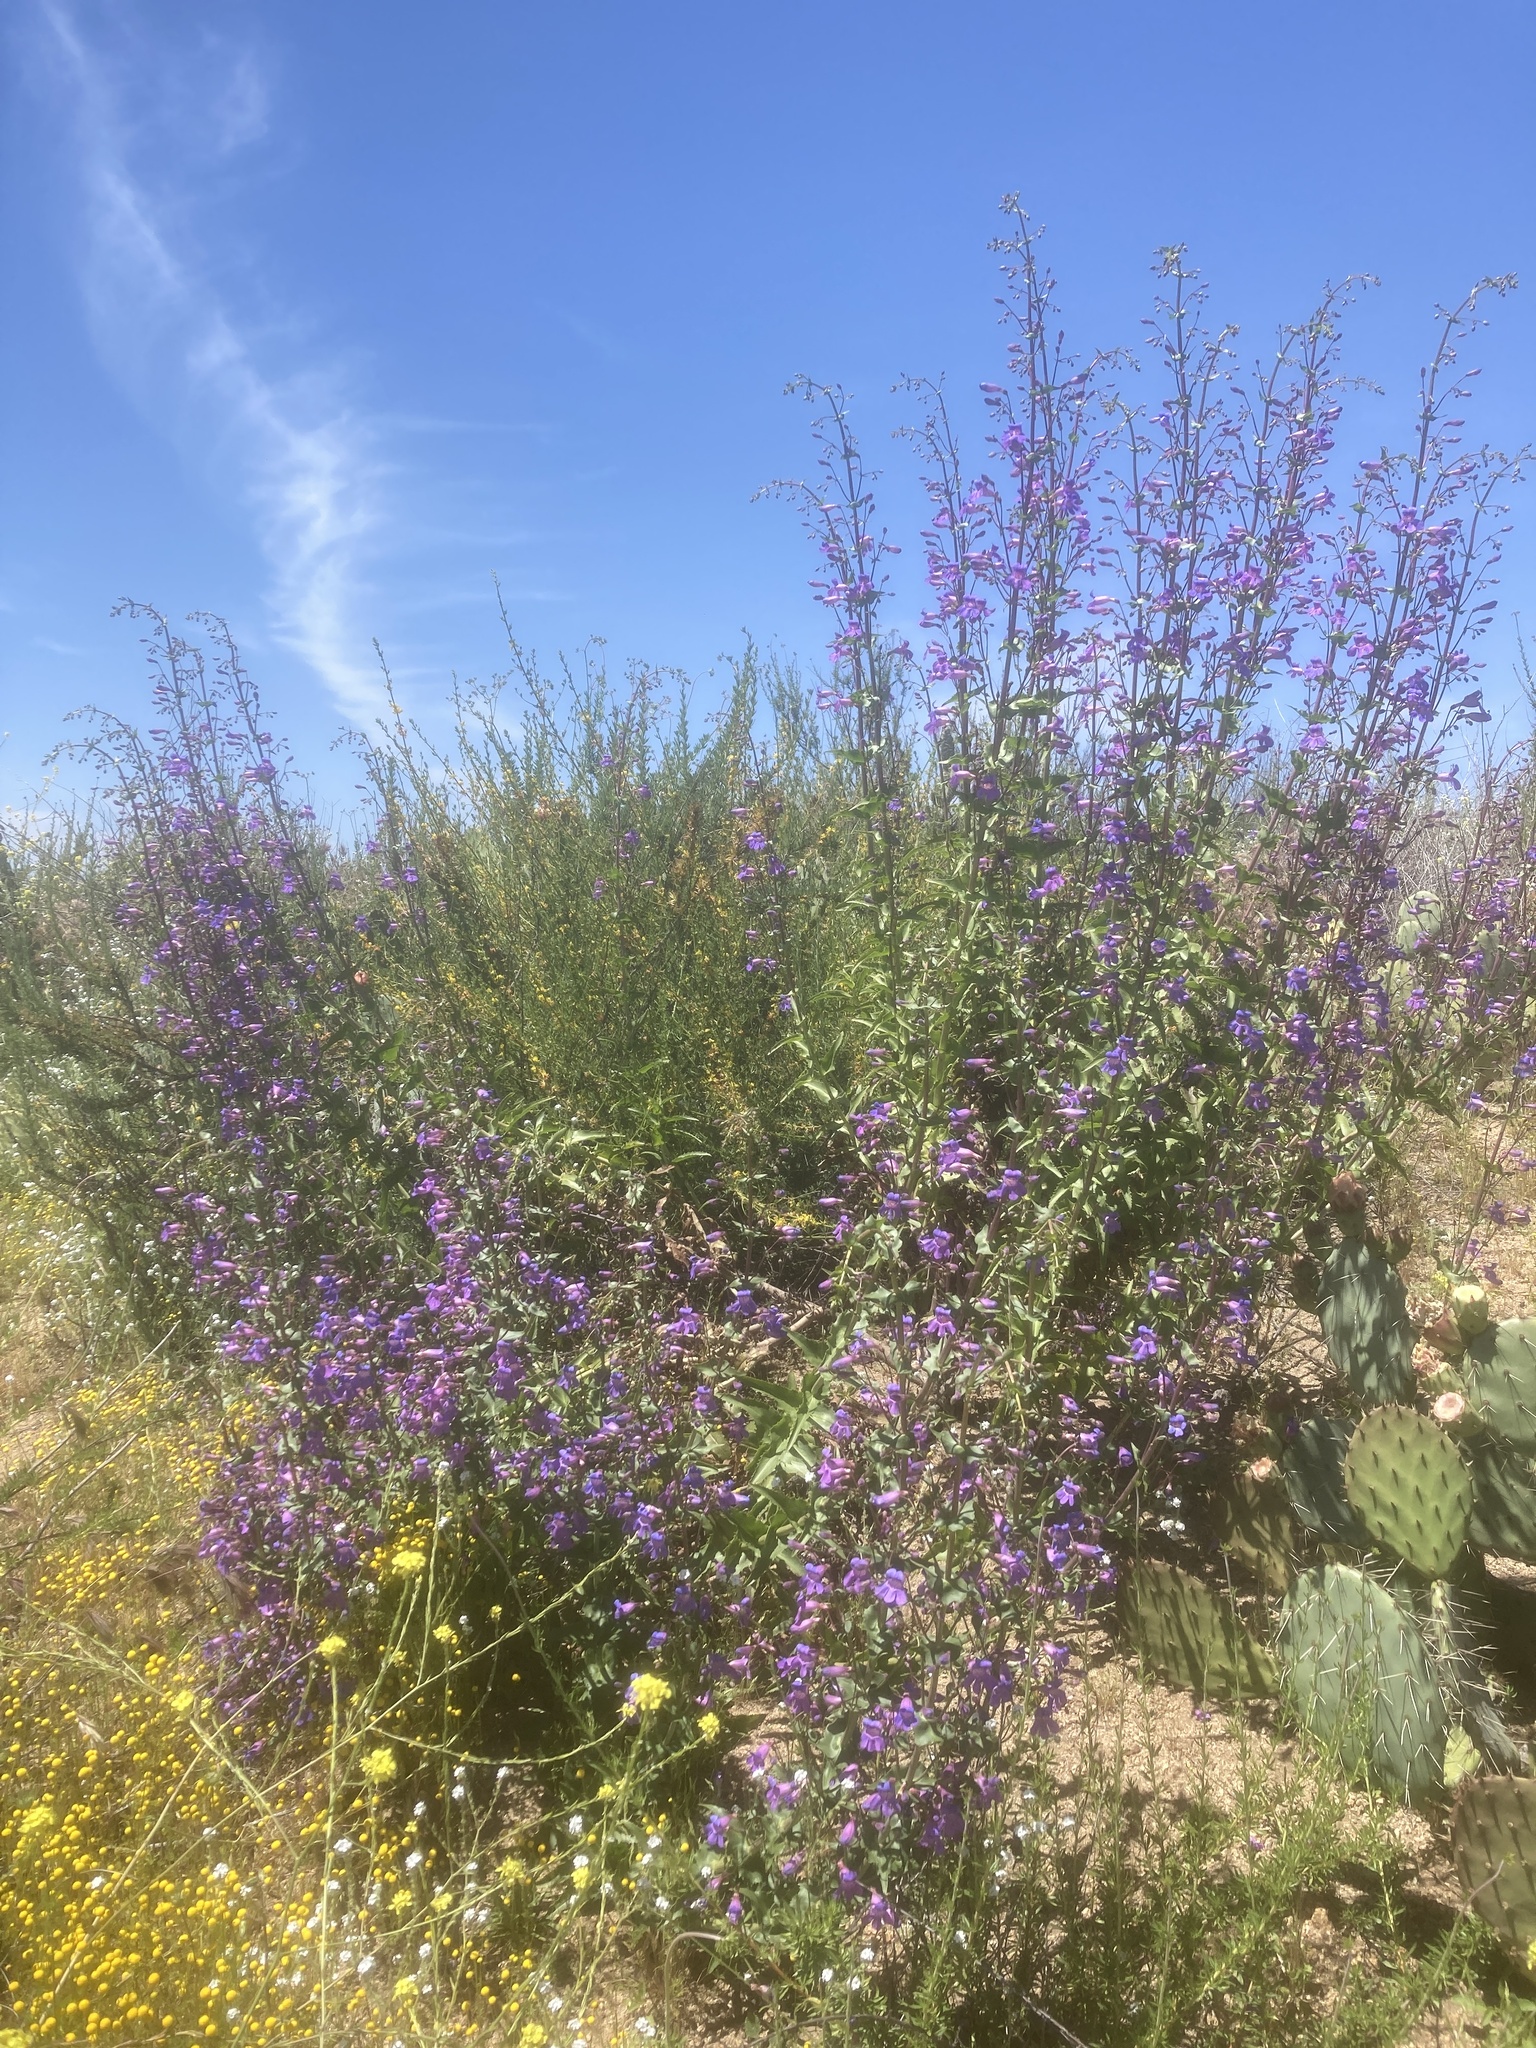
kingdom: Plantae
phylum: Tracheophyta
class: Magnoliopsida
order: Lamiales
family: Plantaginaceae
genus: Penstemon
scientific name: Penstemon spectabilis
